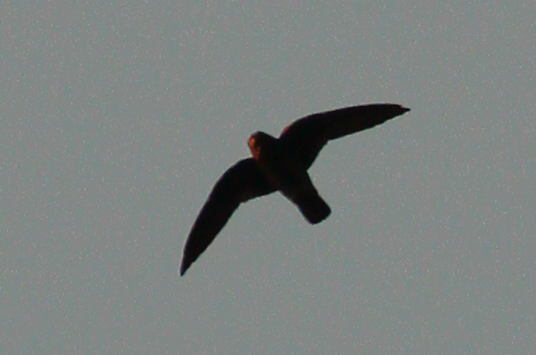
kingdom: Animalia
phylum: Chordata
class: Aves
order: Apodiformes
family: Apodidae
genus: Chaetura
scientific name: Chaetura cinereiventris
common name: Gray-rumped swift
